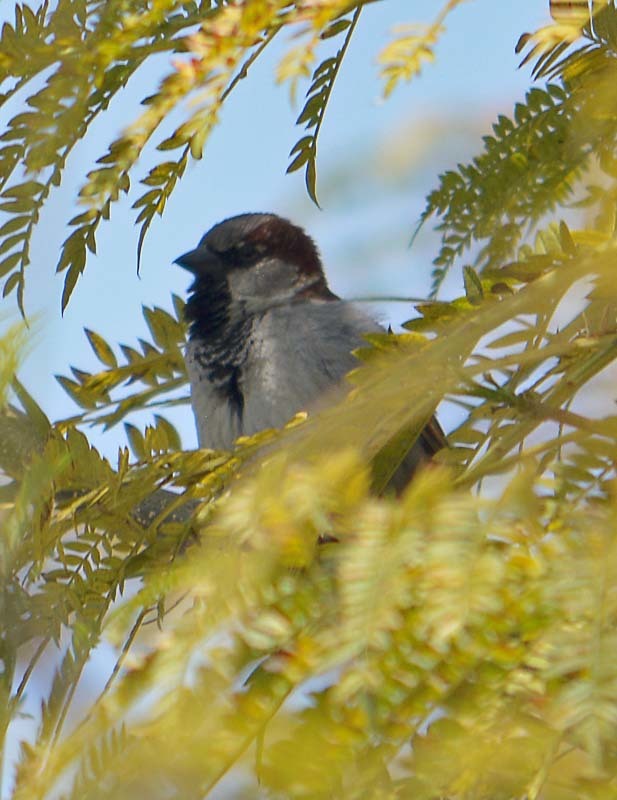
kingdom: Animalia
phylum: Chordata
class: Aves
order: Passeriformes
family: Passeridae
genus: Passer
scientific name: Passer domesticus
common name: House sparrow
